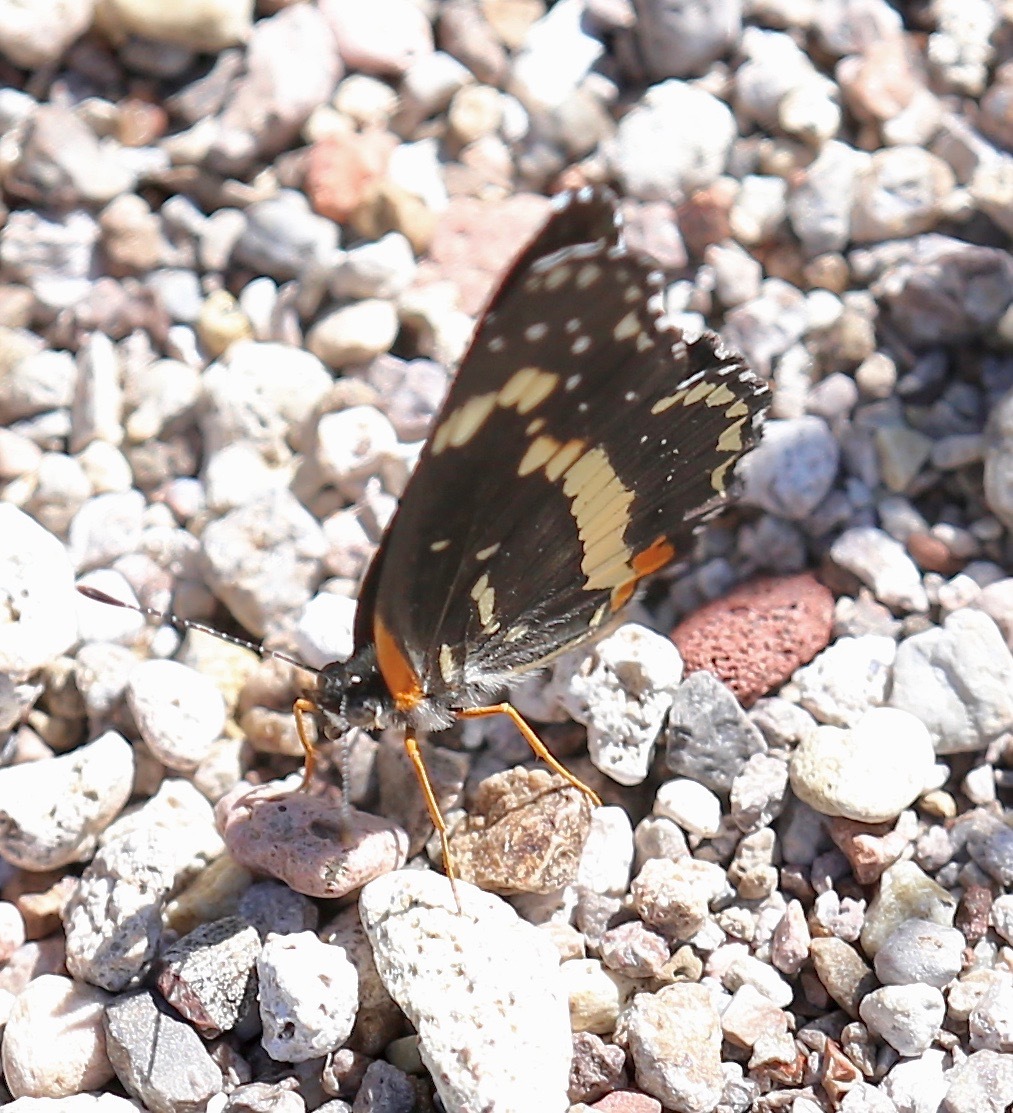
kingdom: Animalia
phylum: Arthropoda
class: Insecta
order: Lepidoptera
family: Nymphalidae
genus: Chlosyne
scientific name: Chlosyne lacinia
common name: Bordered patch
